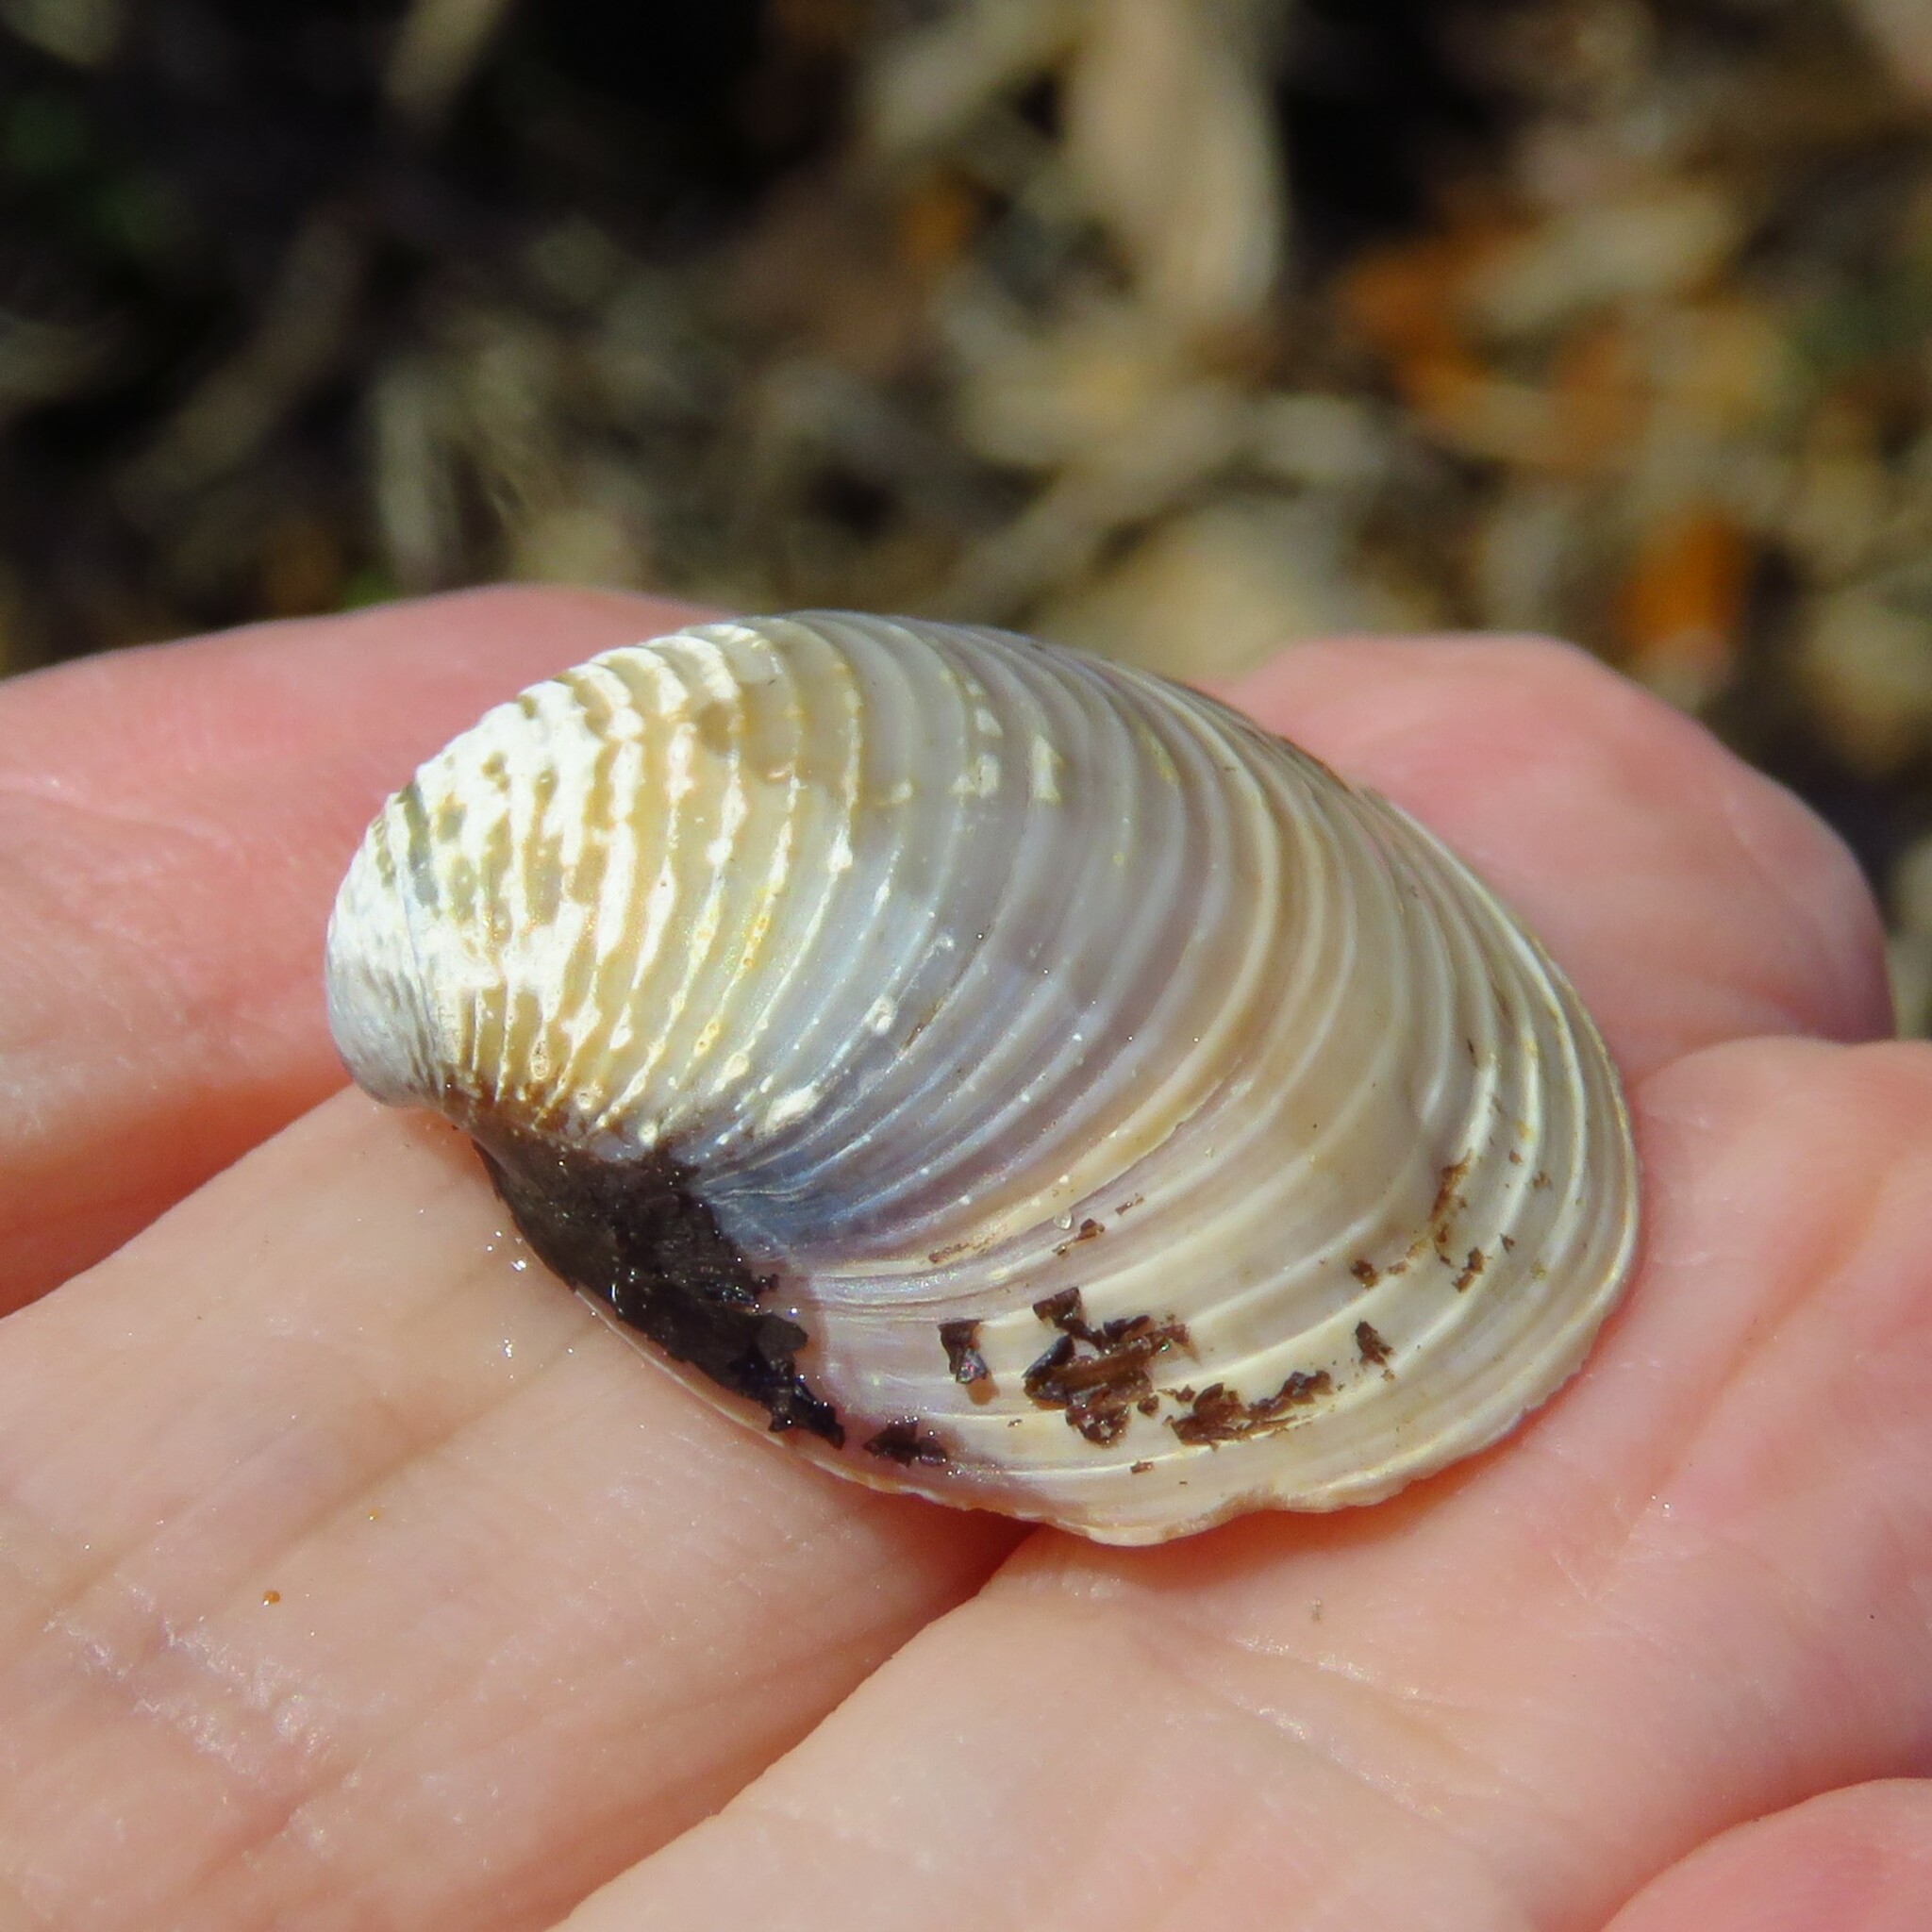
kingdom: Animalia
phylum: Mollusca
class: Bivalvia
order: Venerida
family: Cyrenidae
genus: Corbicula
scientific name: Corbicula fluminea
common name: Asian clam
